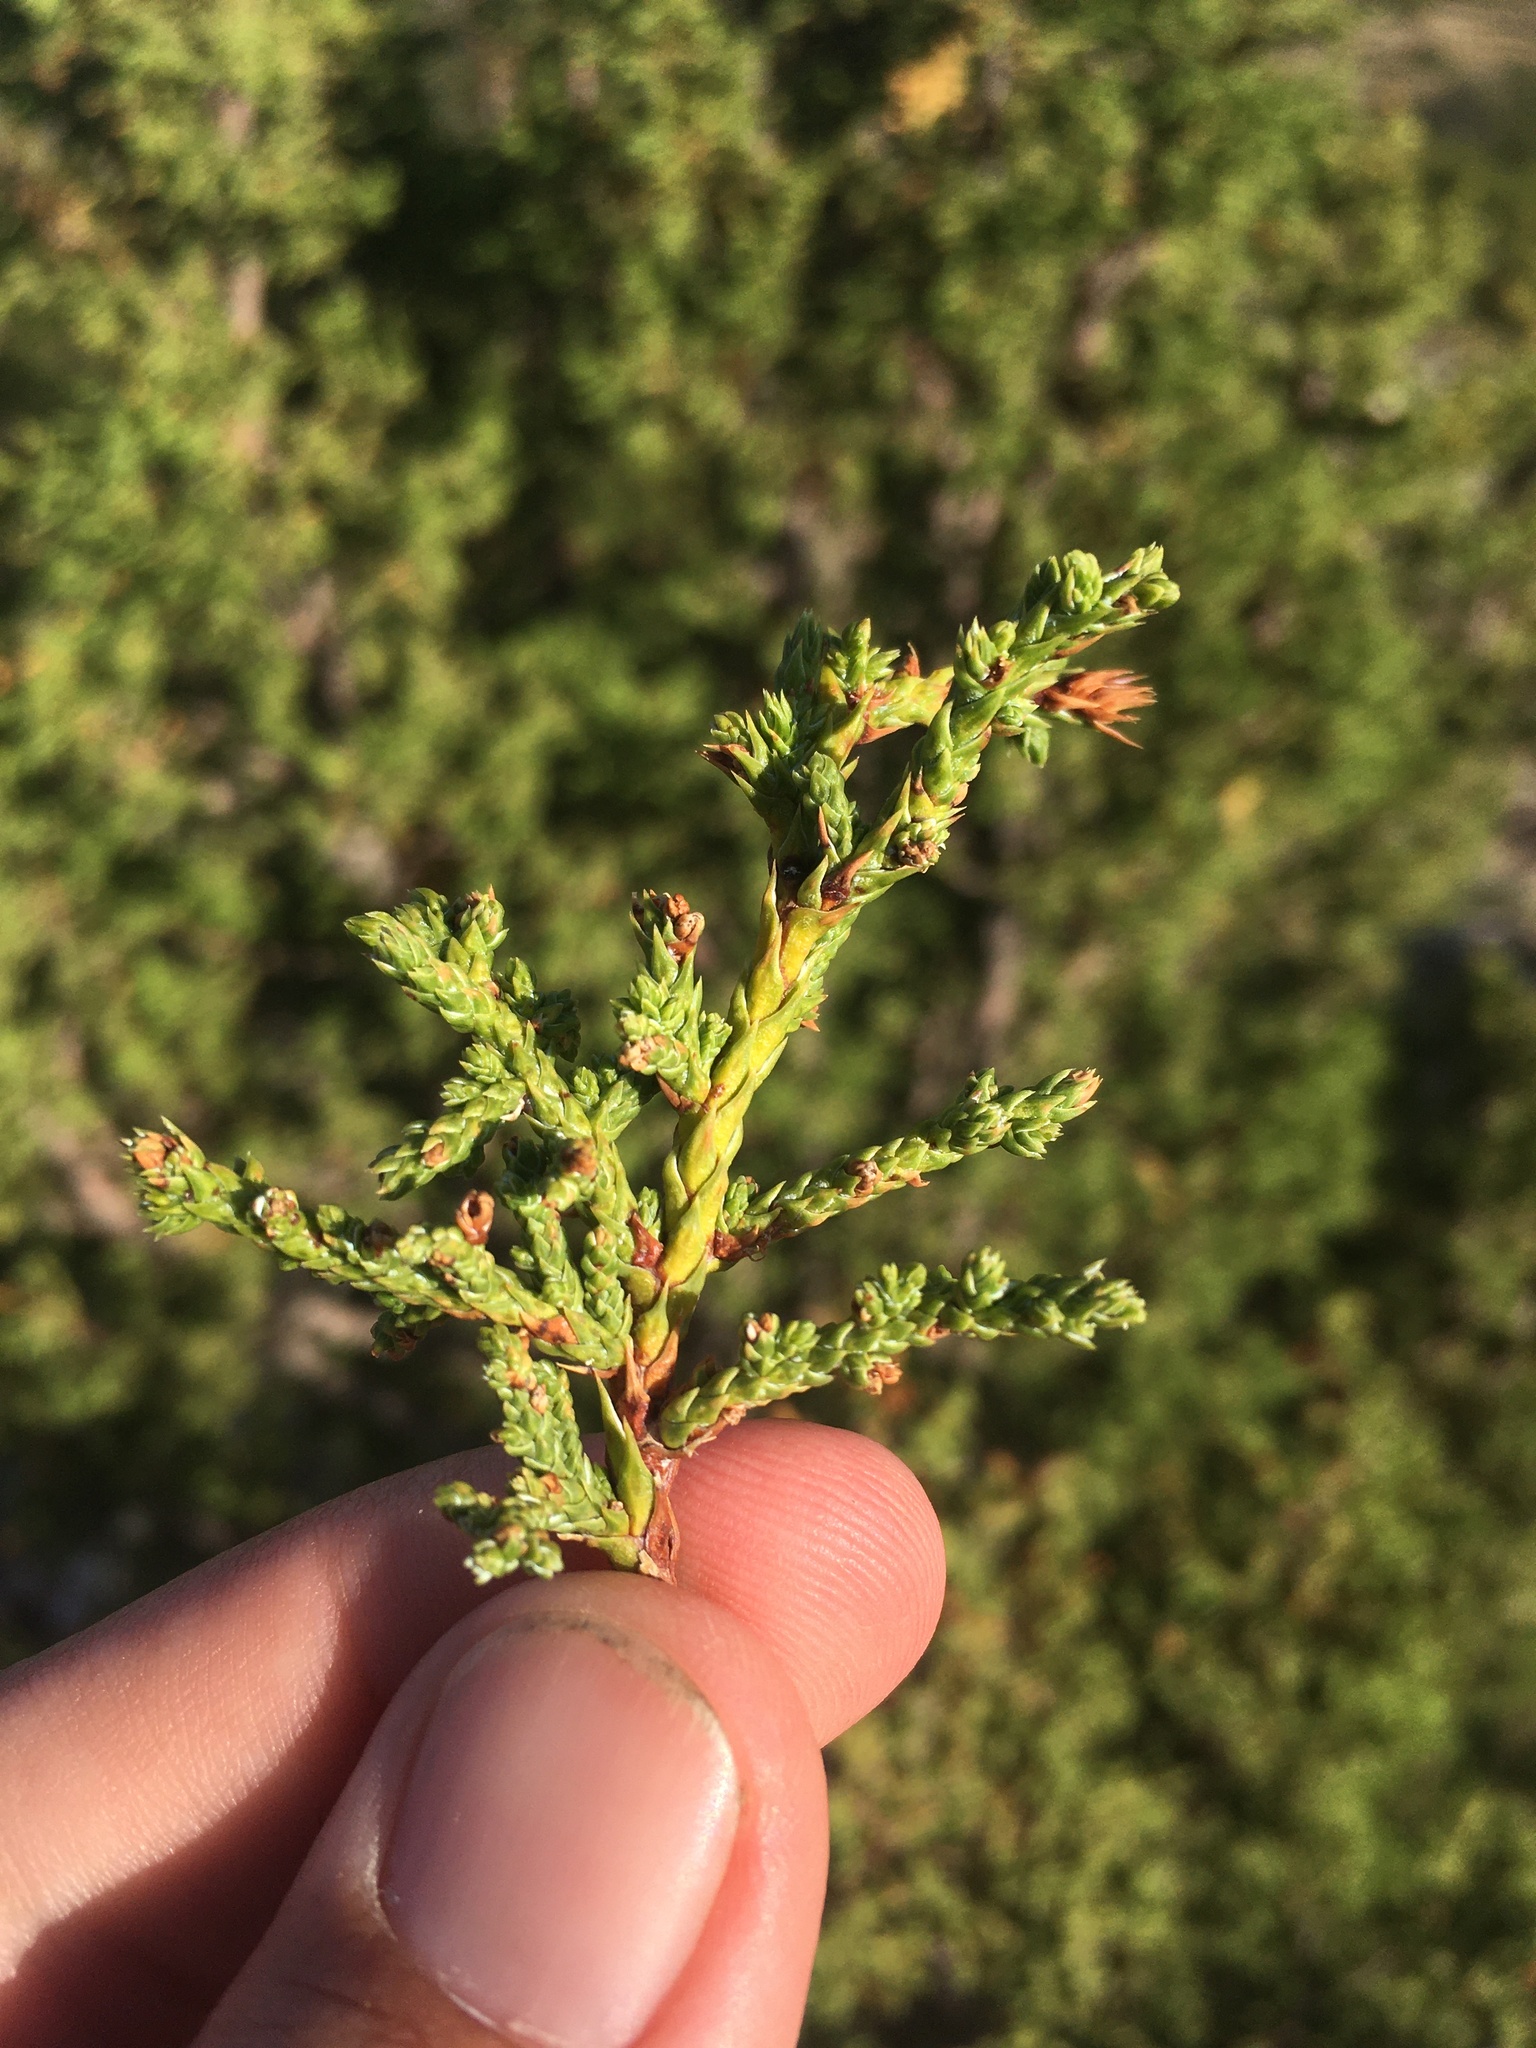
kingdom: Plantae
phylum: Tracheophyta
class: Pinopsida
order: Pinales
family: Cupressaceae
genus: Juniperus
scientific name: Juniperus monosperma
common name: One-seed juniper
